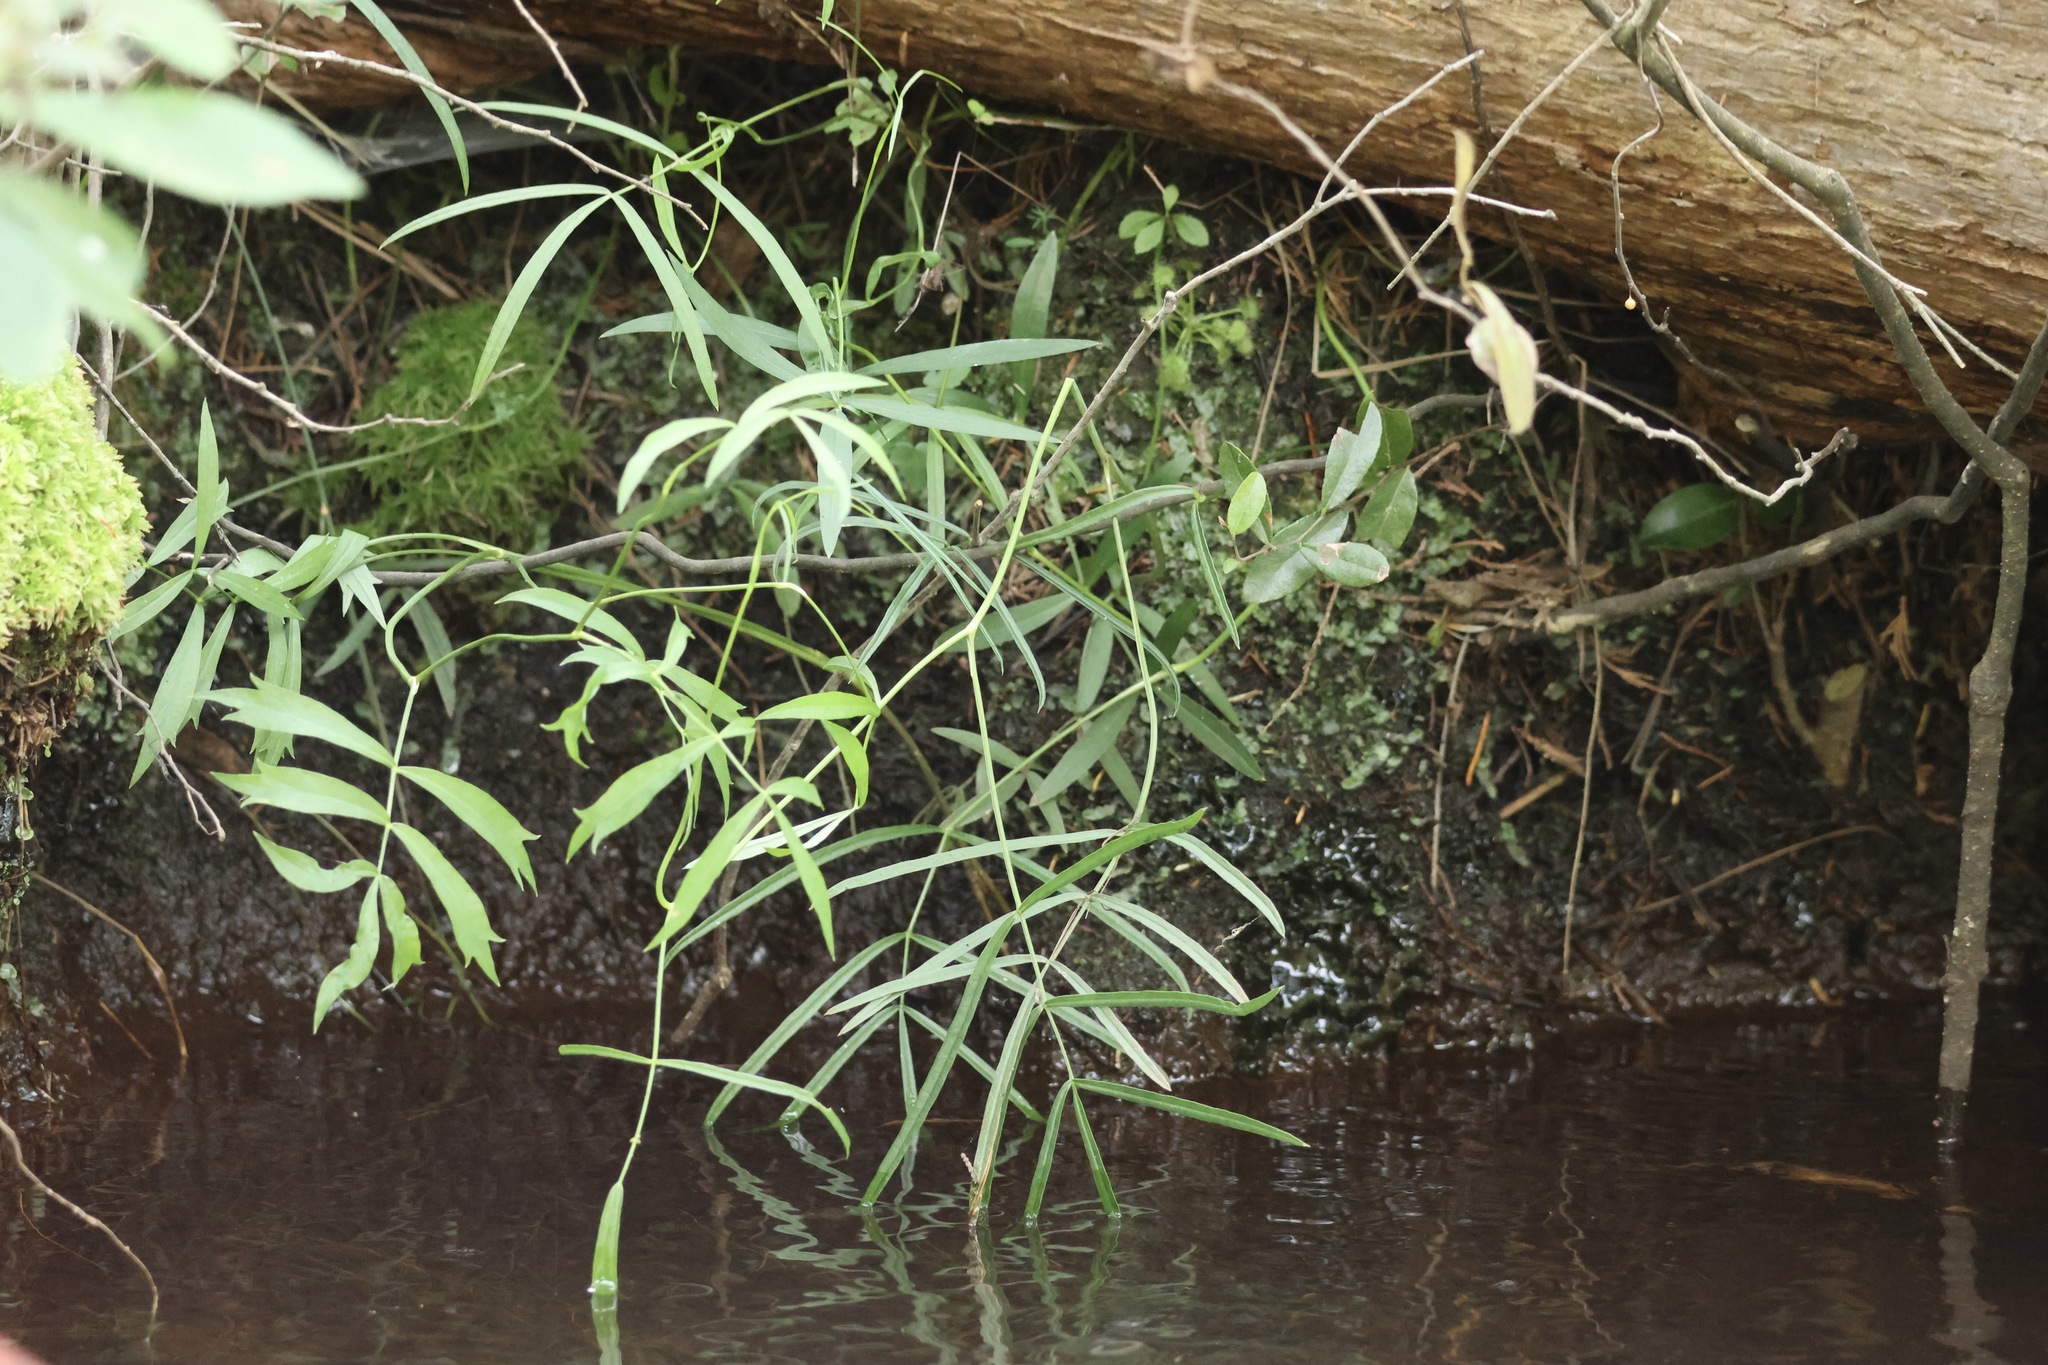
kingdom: Plantae
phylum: Tracheophyta
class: Magnoliopsida
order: Apiales
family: Apiaceae
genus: Oxypolis
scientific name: Oxypolis rigidior
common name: Cowbane
